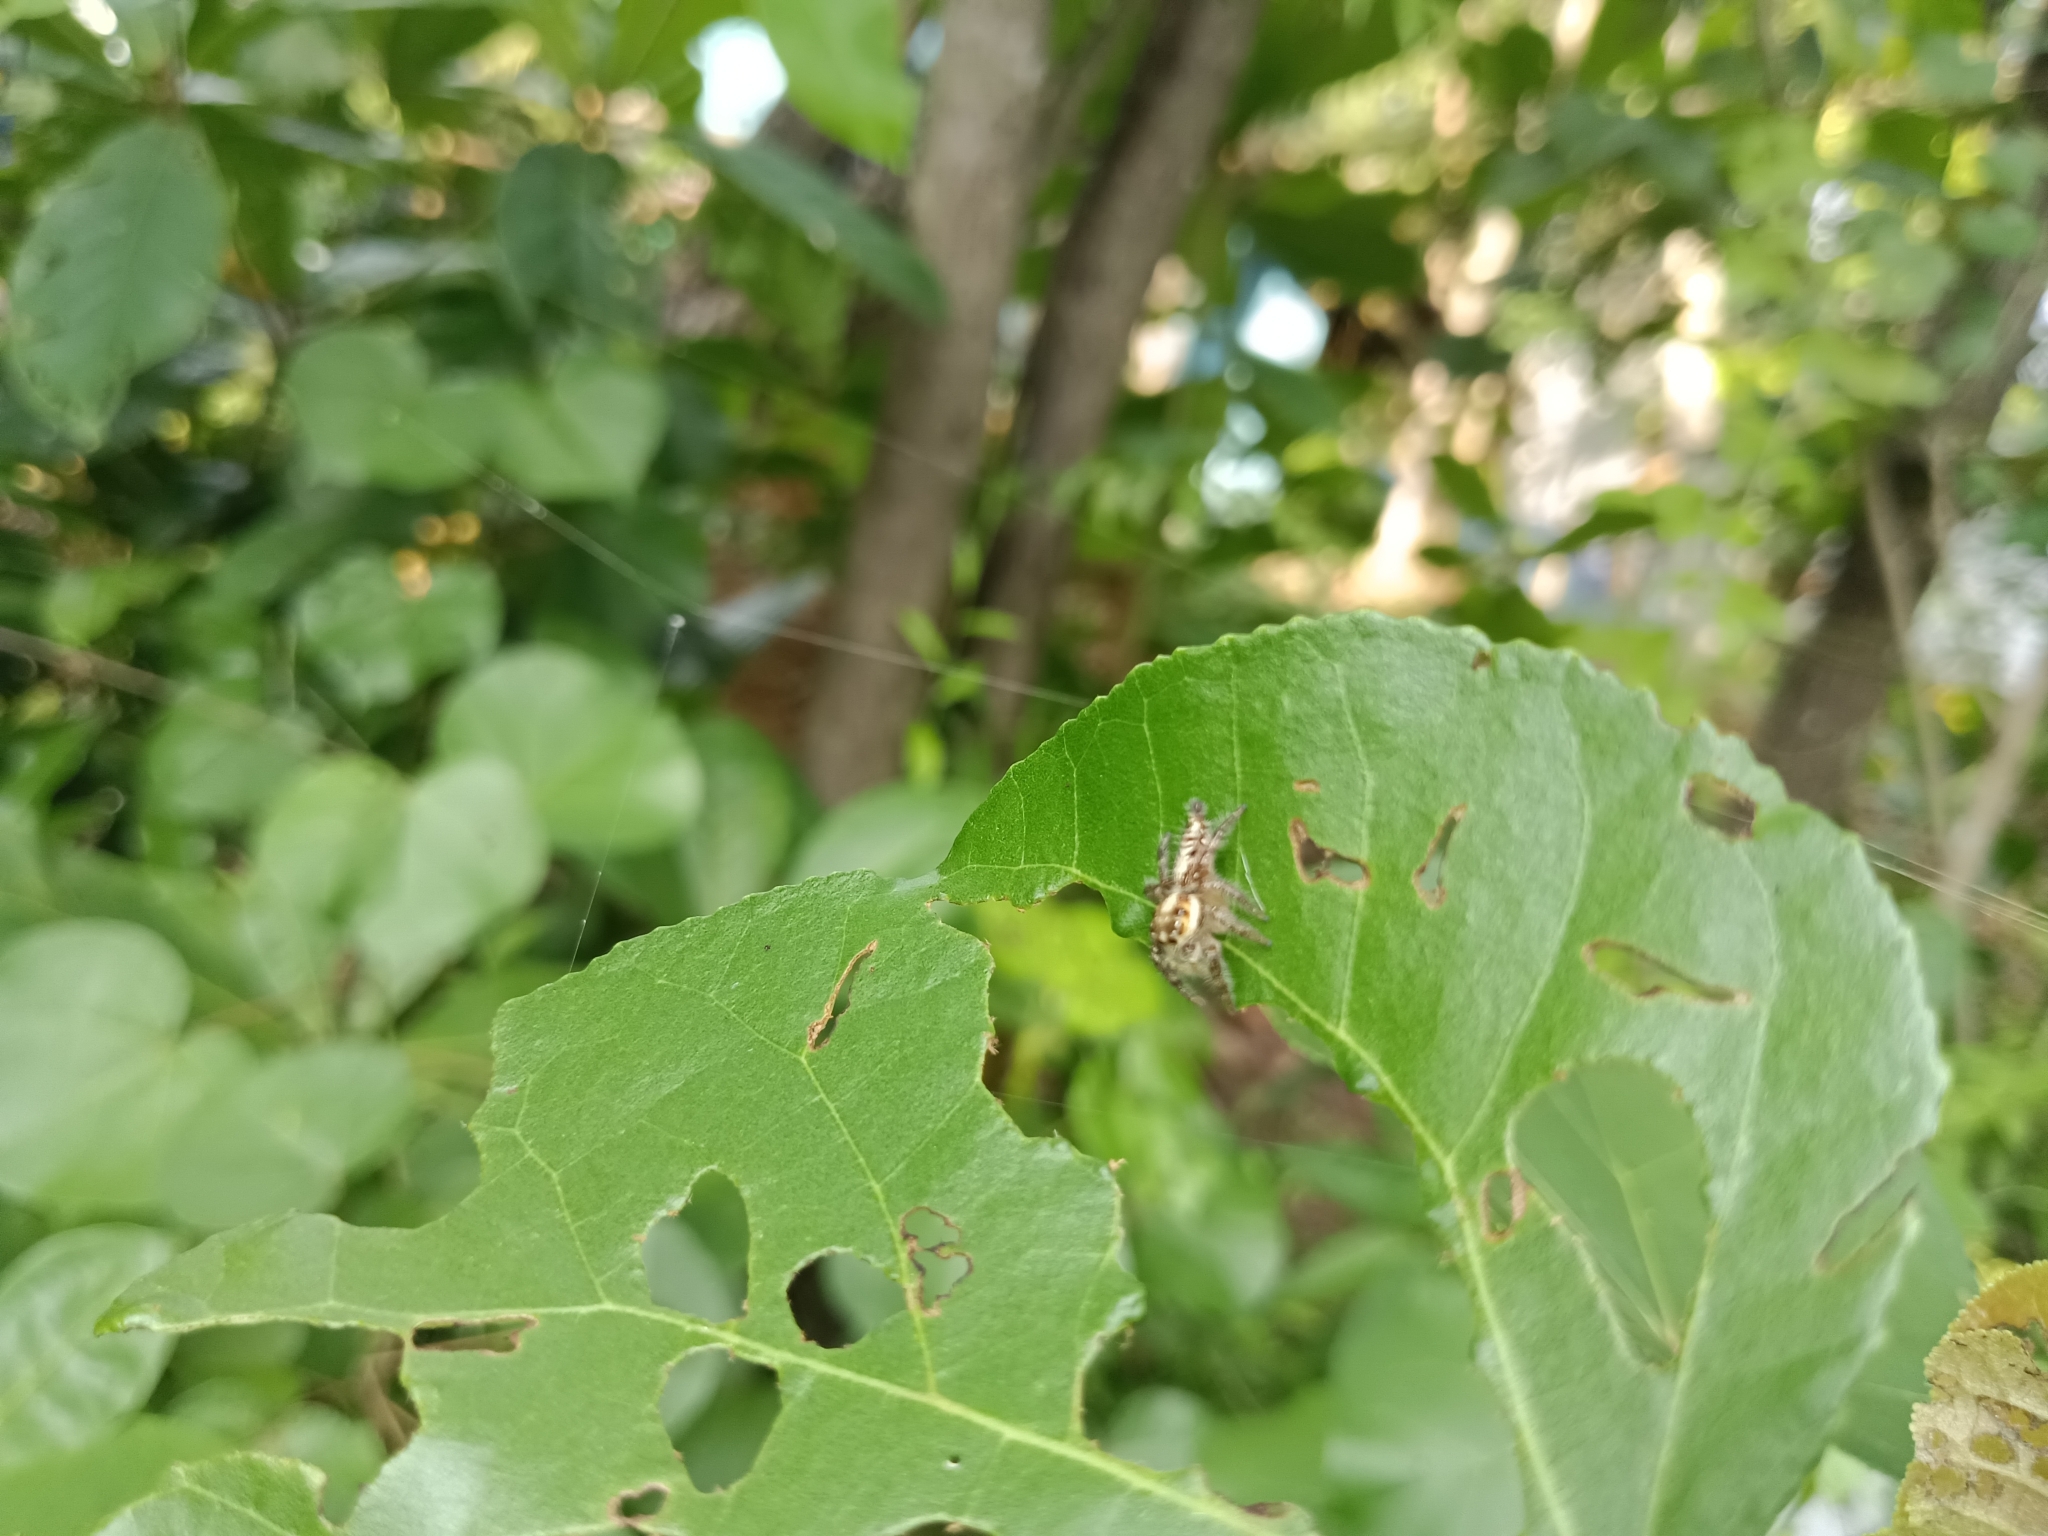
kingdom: Animalia
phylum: Arthropoda
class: Arachnida
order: Araneae
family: Salticidae
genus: Hyllus
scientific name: Hyllus semicupreus
